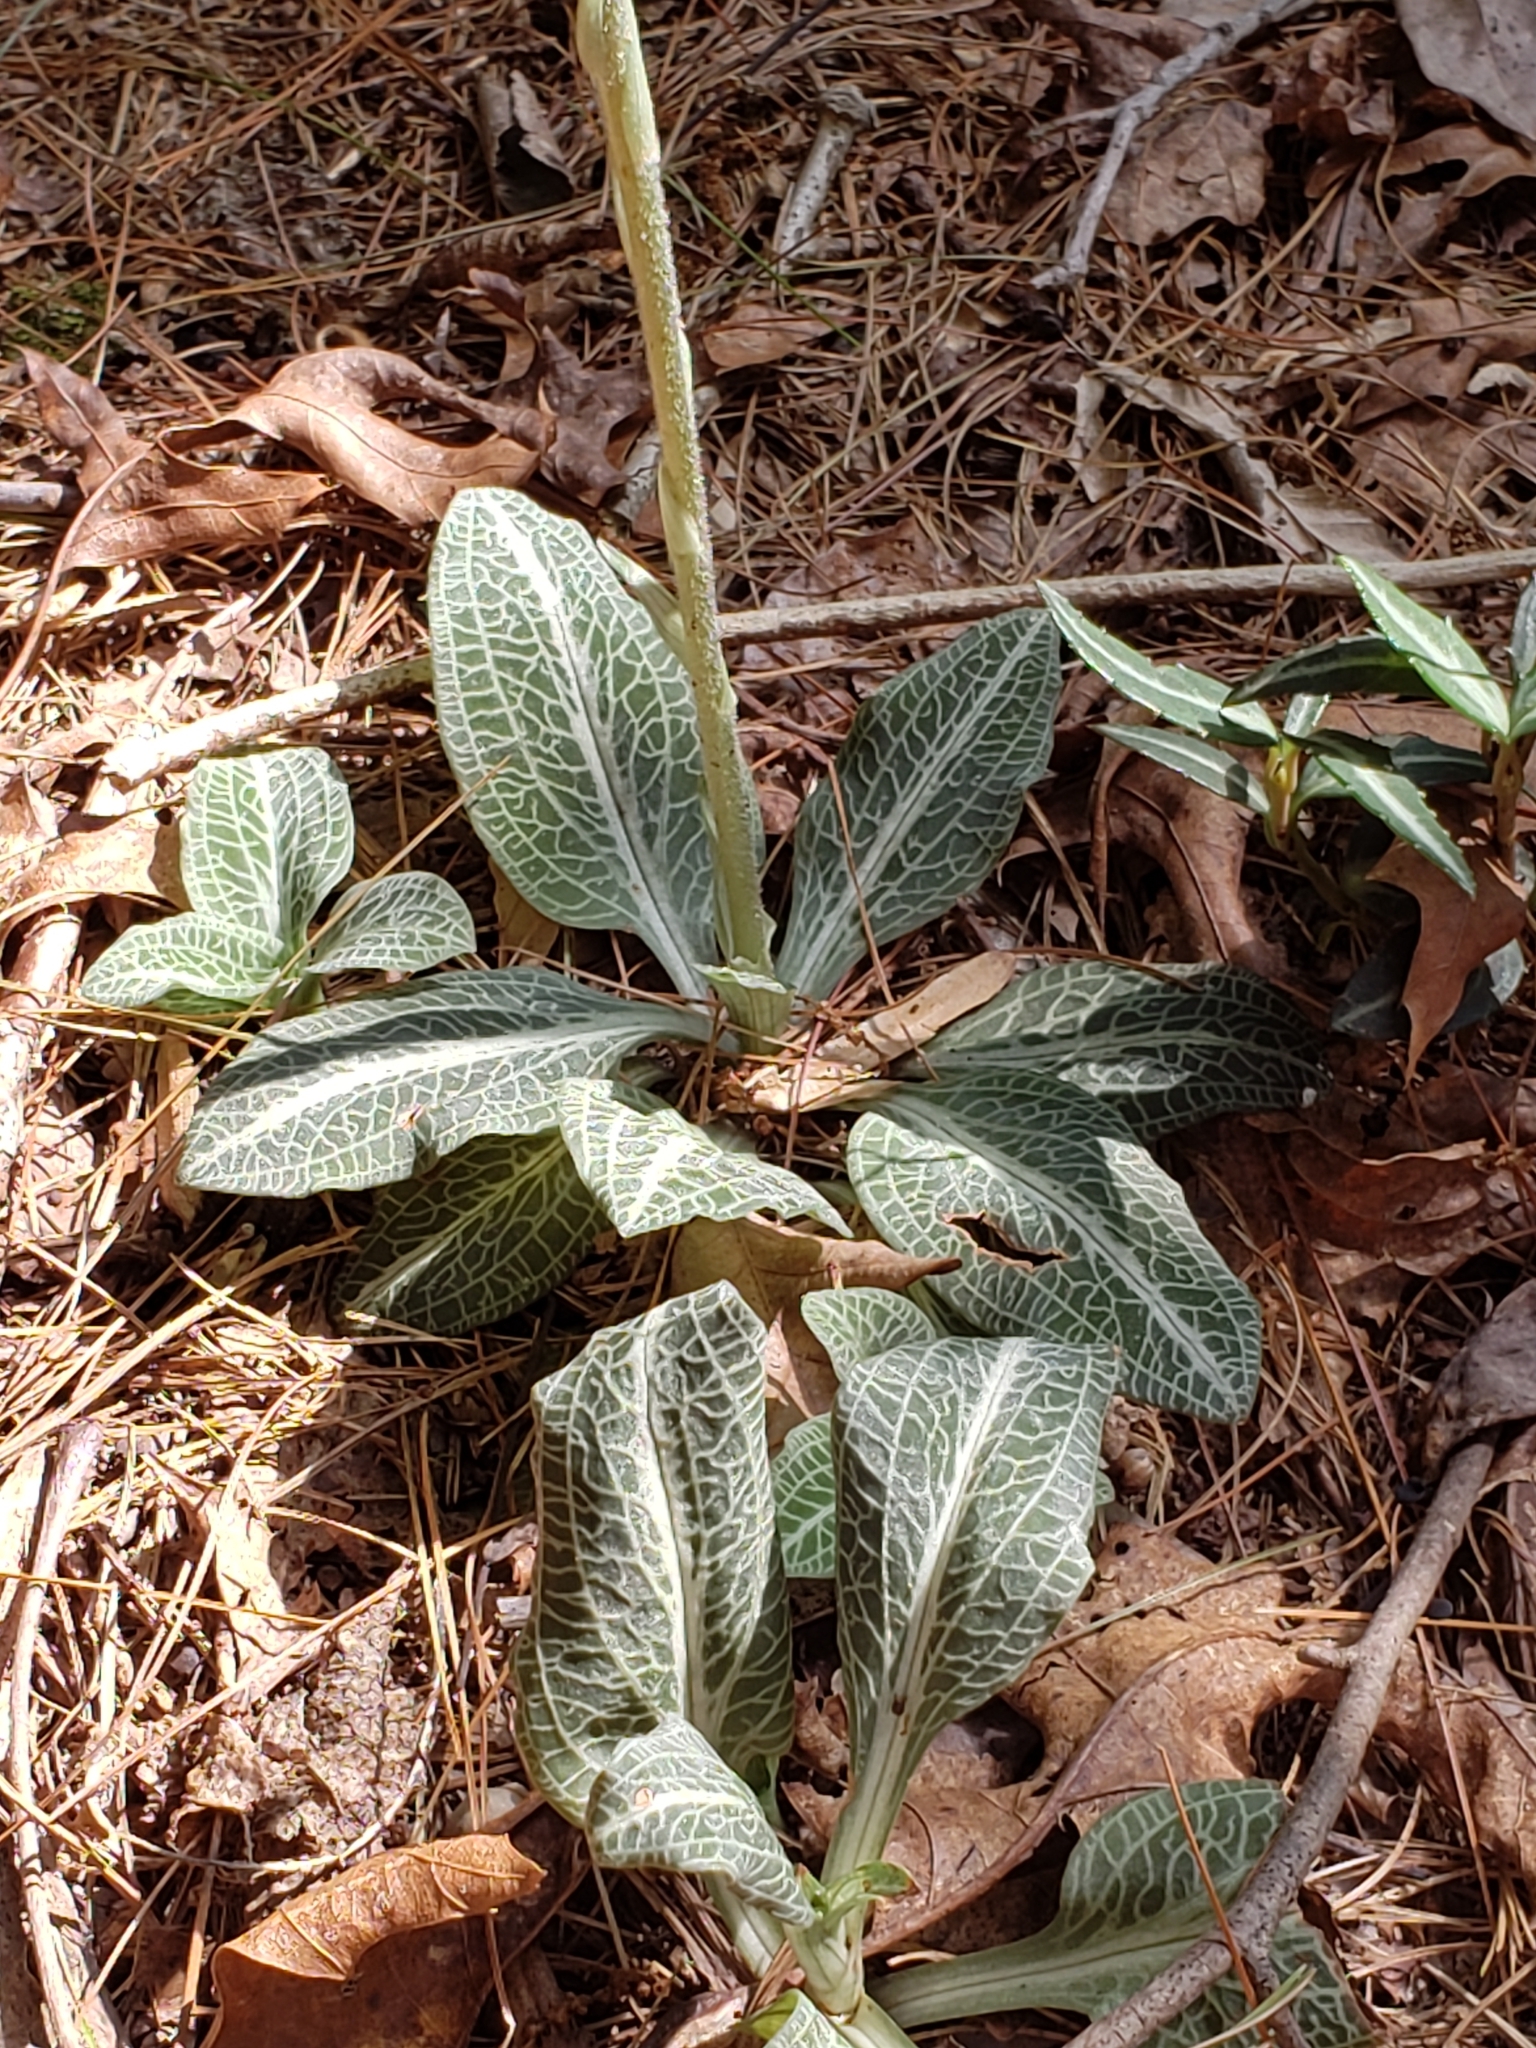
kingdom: Plantae
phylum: Tracheophyta
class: Liliopsida
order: Asparagales
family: Orchidaceae
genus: Goodyera
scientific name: Goodyera pubescens
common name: Downy rattlesnake-plantain
